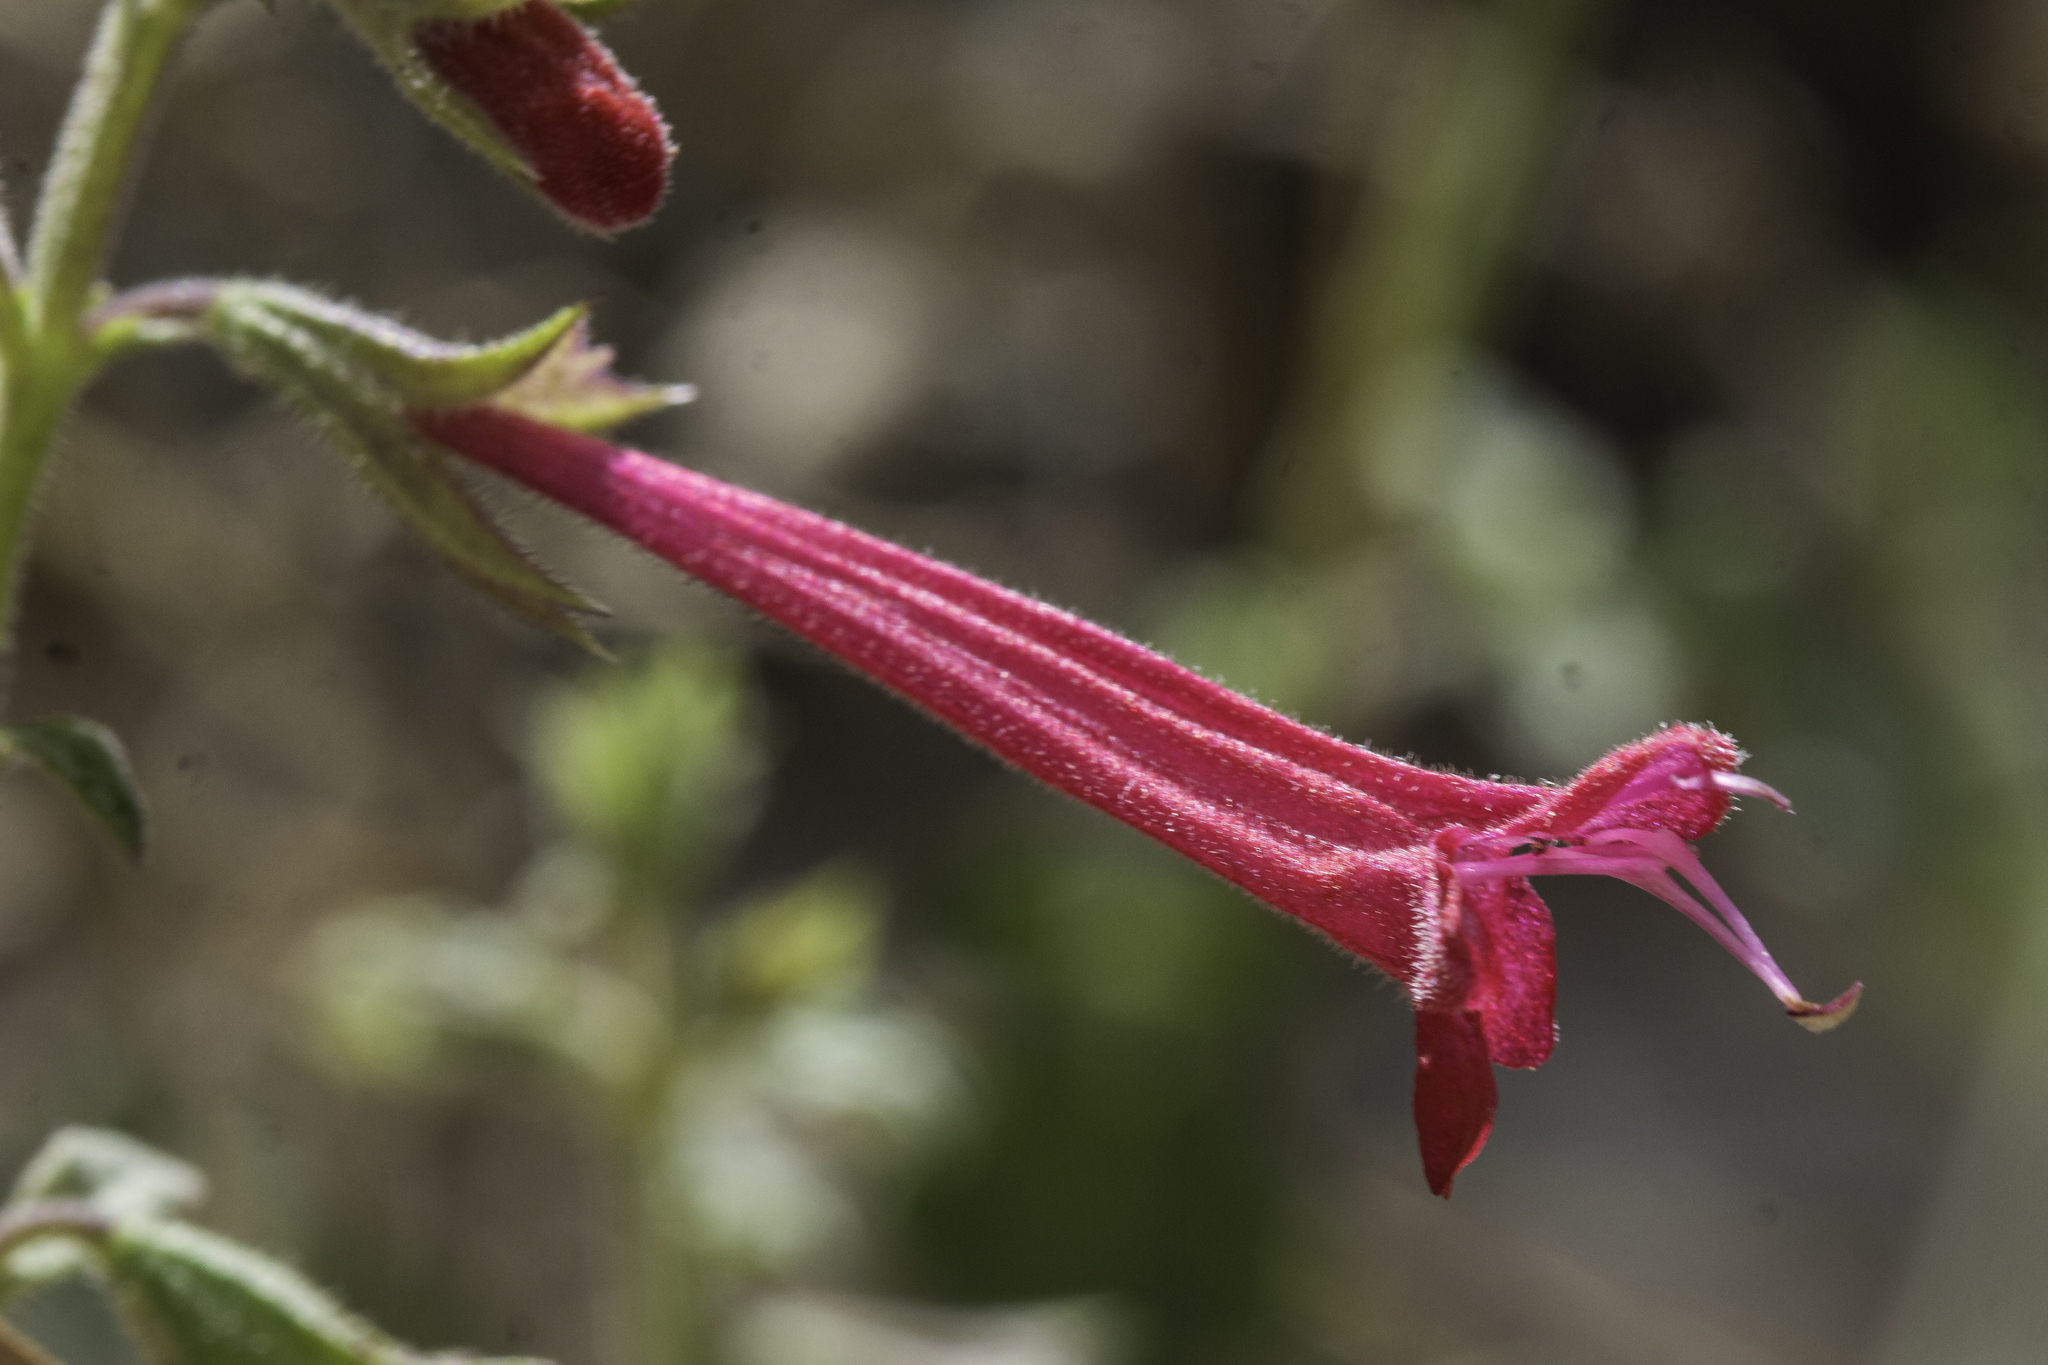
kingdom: Plantae
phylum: Tracheophyta
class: Magnoliopsida
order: Lamiales
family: Lamiaceae
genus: Salvia
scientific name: Salvia henryi
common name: Henry's sage
